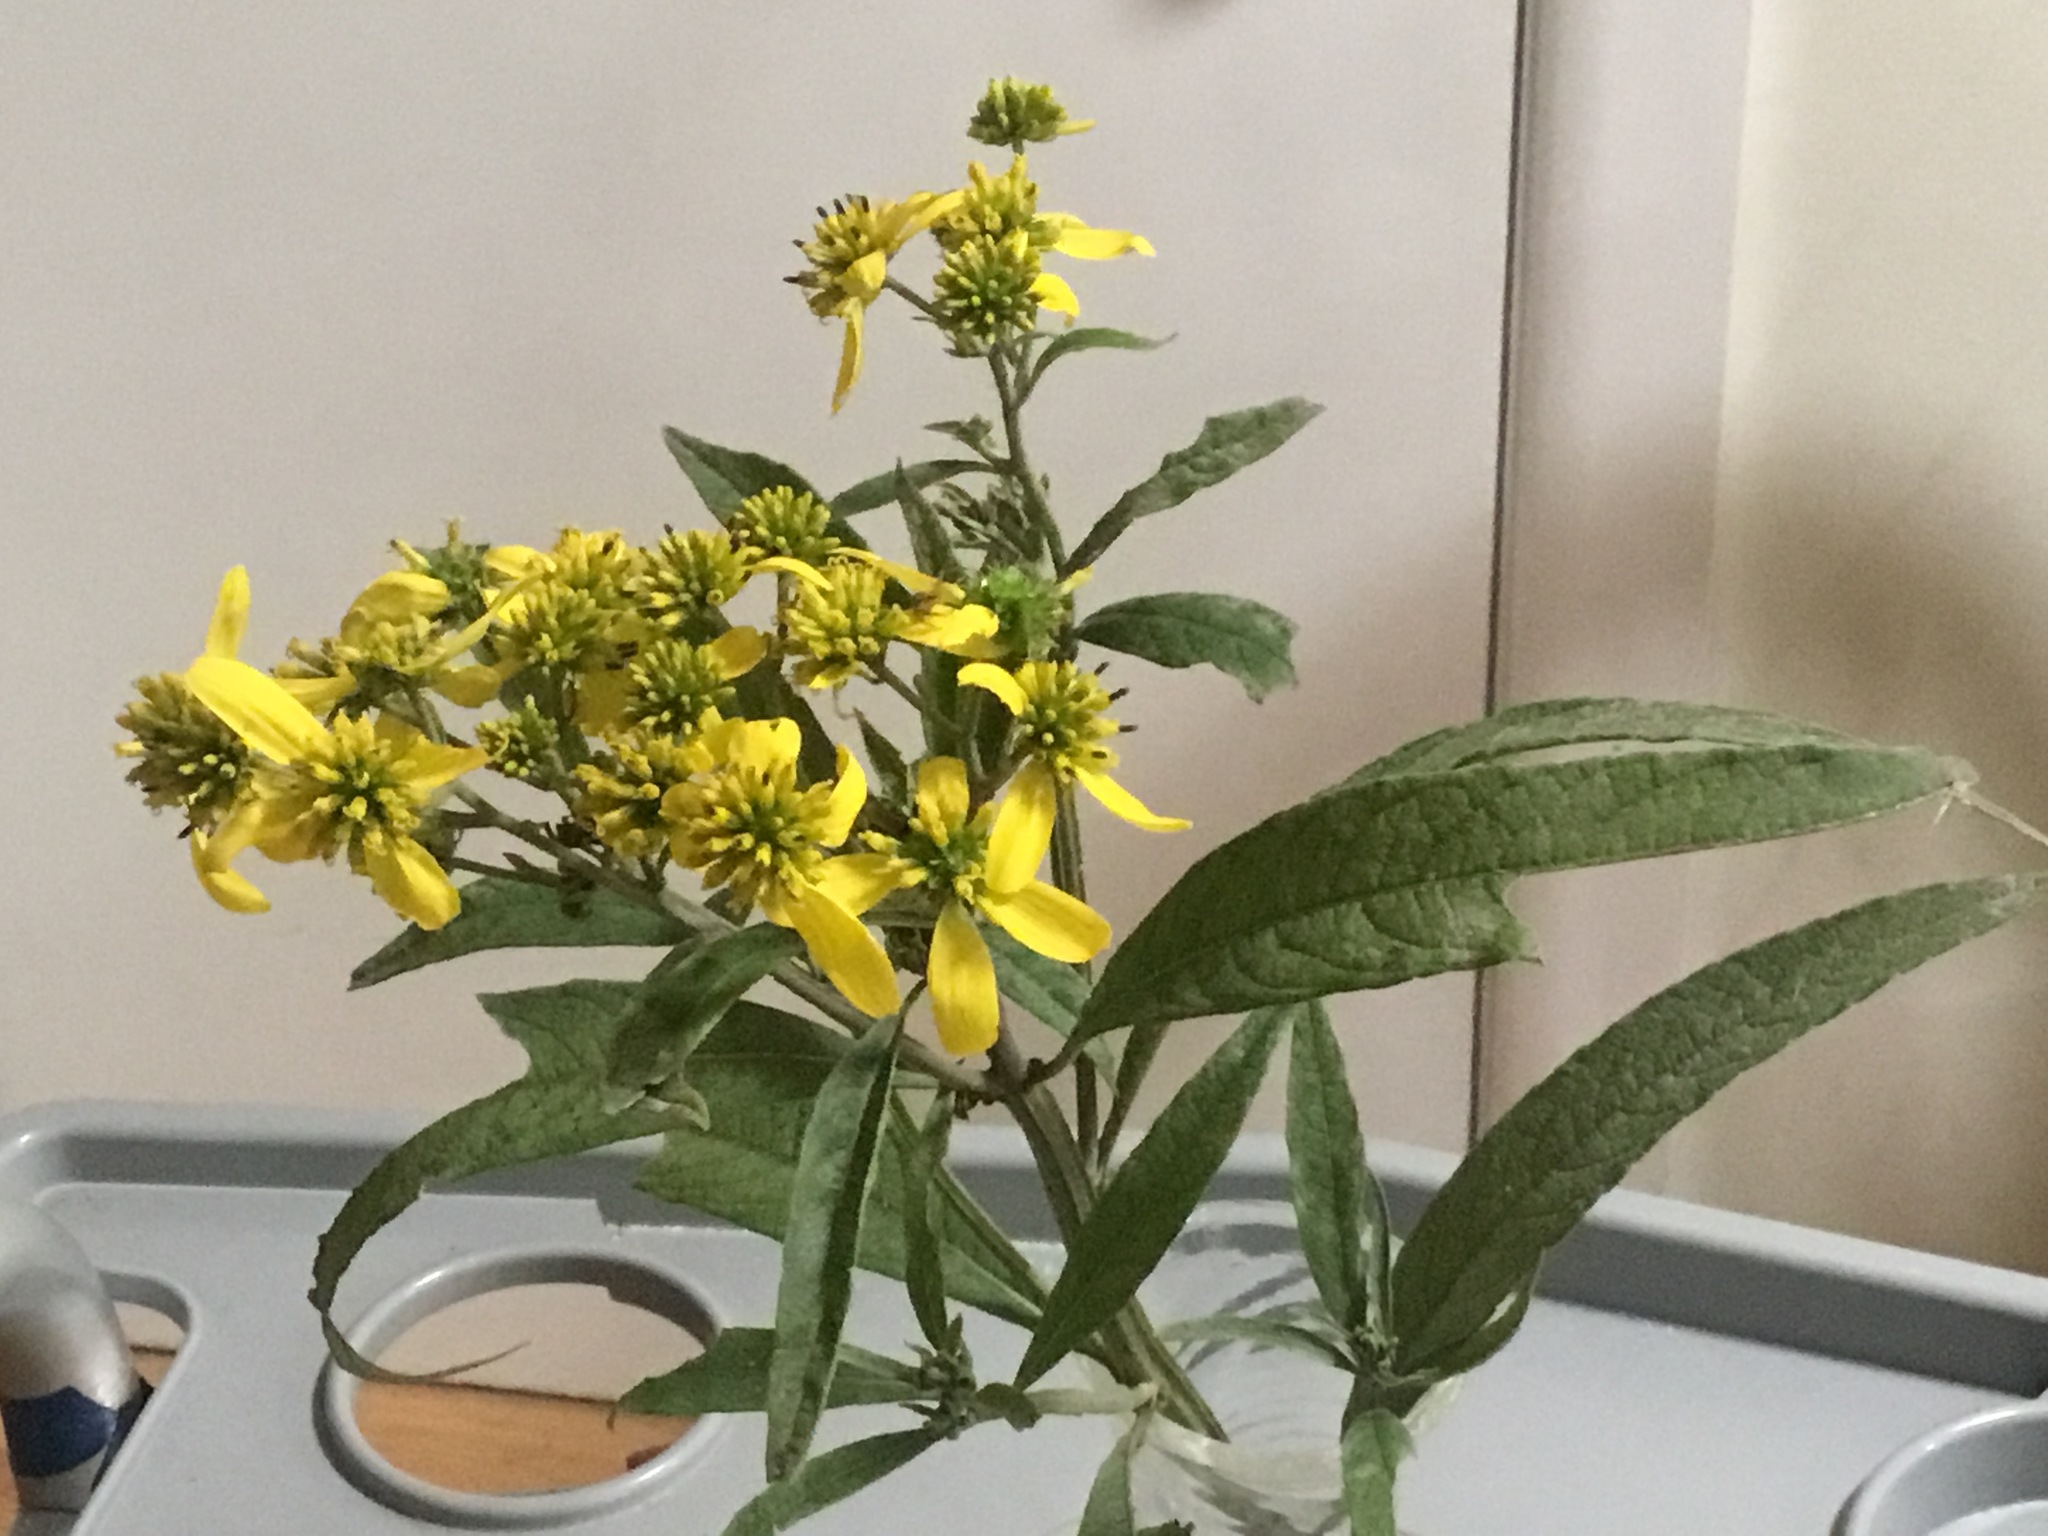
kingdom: Plantae
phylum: Tracheophyta
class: Magnoliopsida
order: Asterales
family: Asteraceae
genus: Verbesina
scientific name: Verbesina alternifolia
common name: Wingstem
